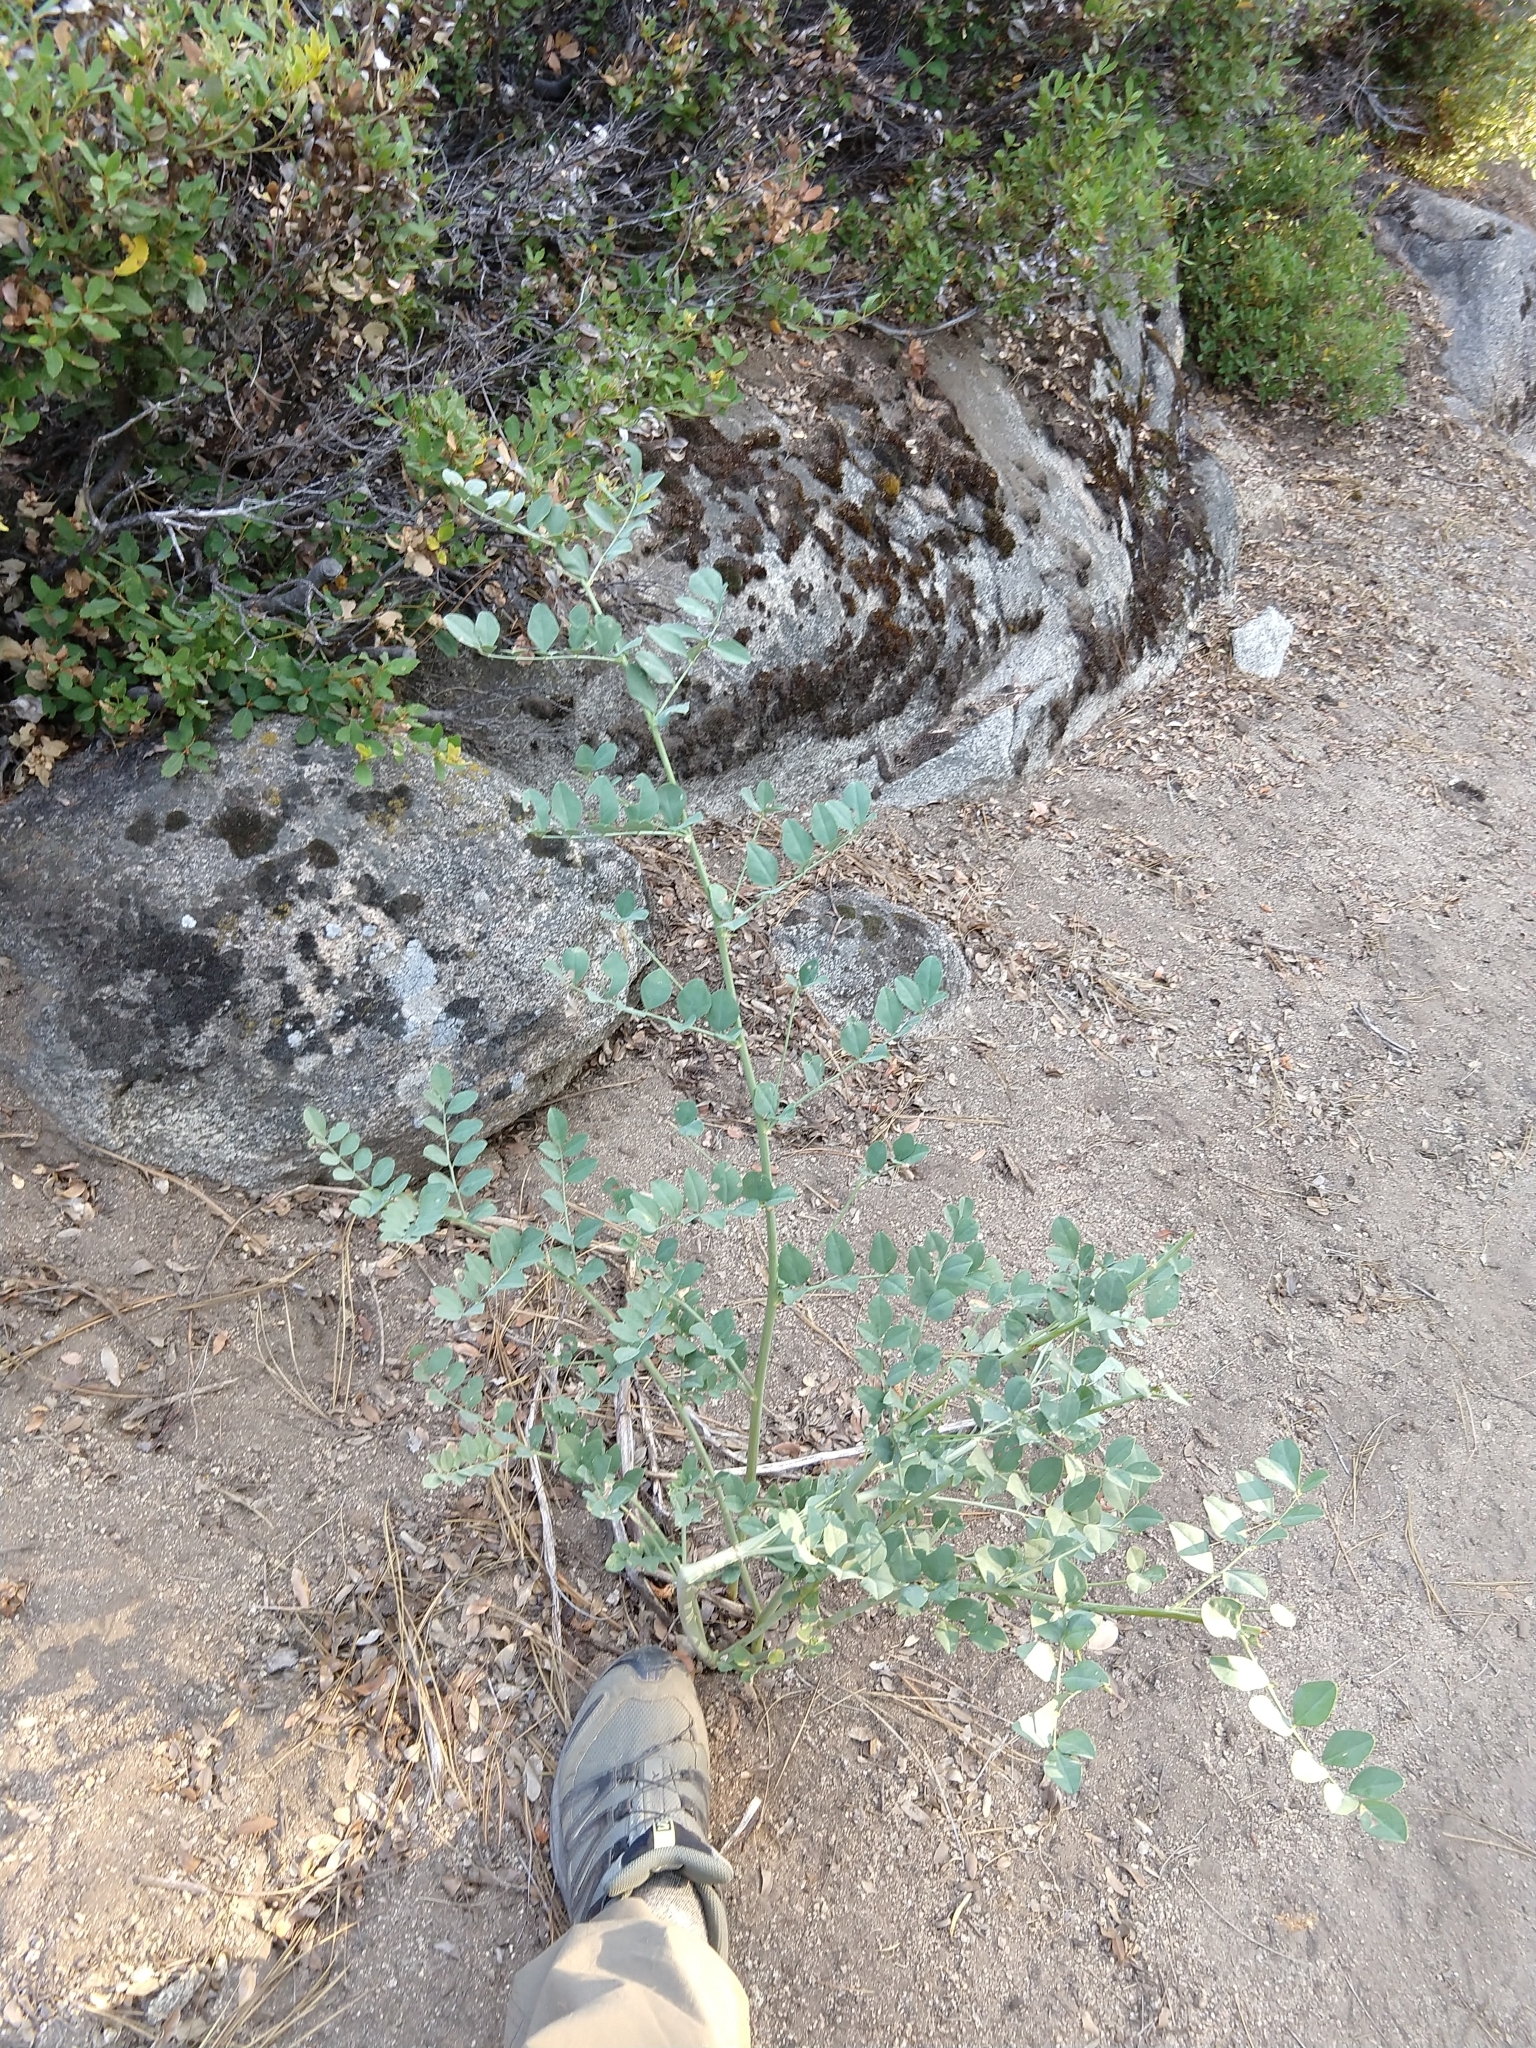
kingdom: Plantae
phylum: Tracheophyta
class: Magnoliopsida
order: Fabales
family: Fabaceae
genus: Hosackia
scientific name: Hosackia crassifolia
